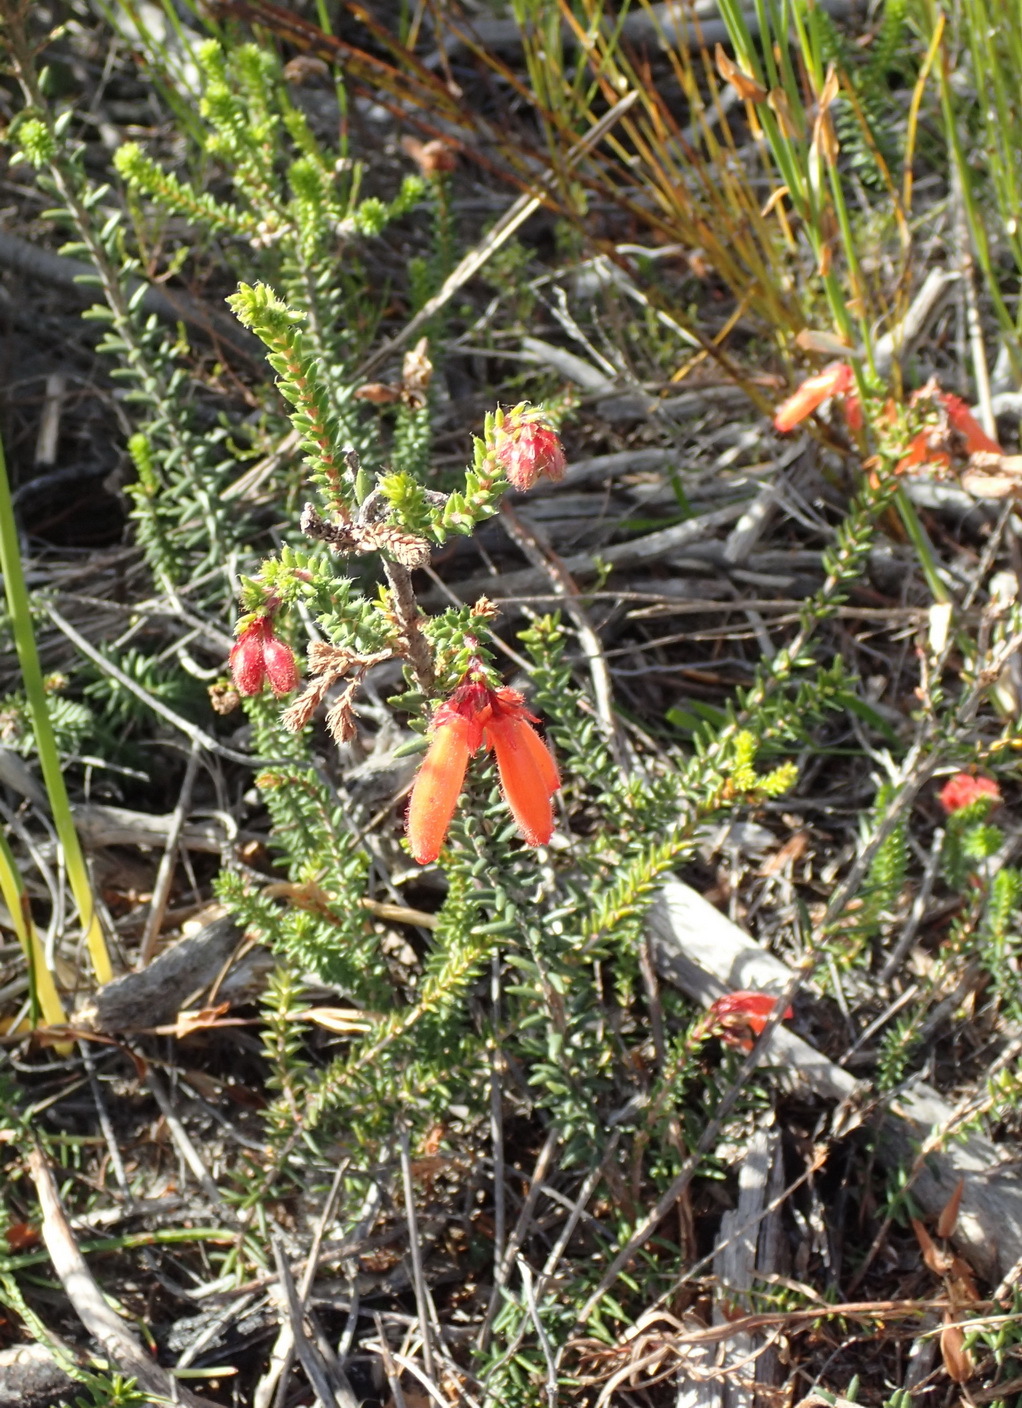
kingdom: Plantae
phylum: Tracheophyta
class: Magnoliopsida
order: Ericales
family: Ericaceae
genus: Erica
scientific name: Erica cerinthoides
